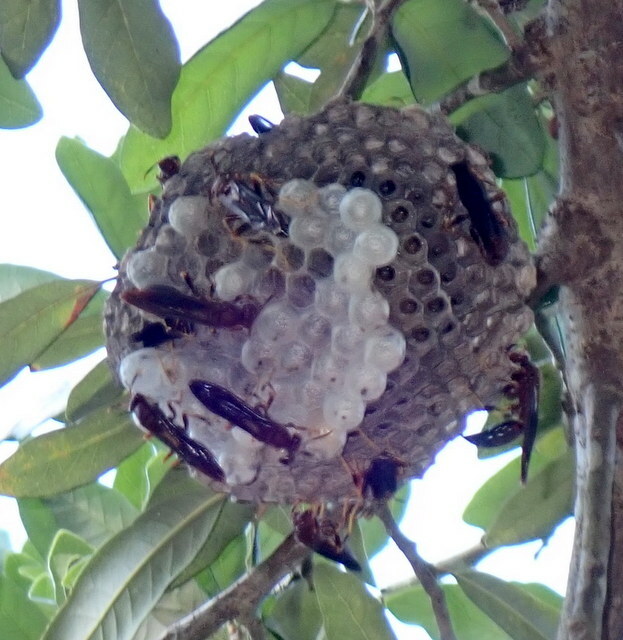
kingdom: Animalia
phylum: Arthropoda
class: Insecta
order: Hymenoptera
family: Eumenidae
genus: Polistes
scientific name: Polistes annularis
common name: Ringed paper wasp
